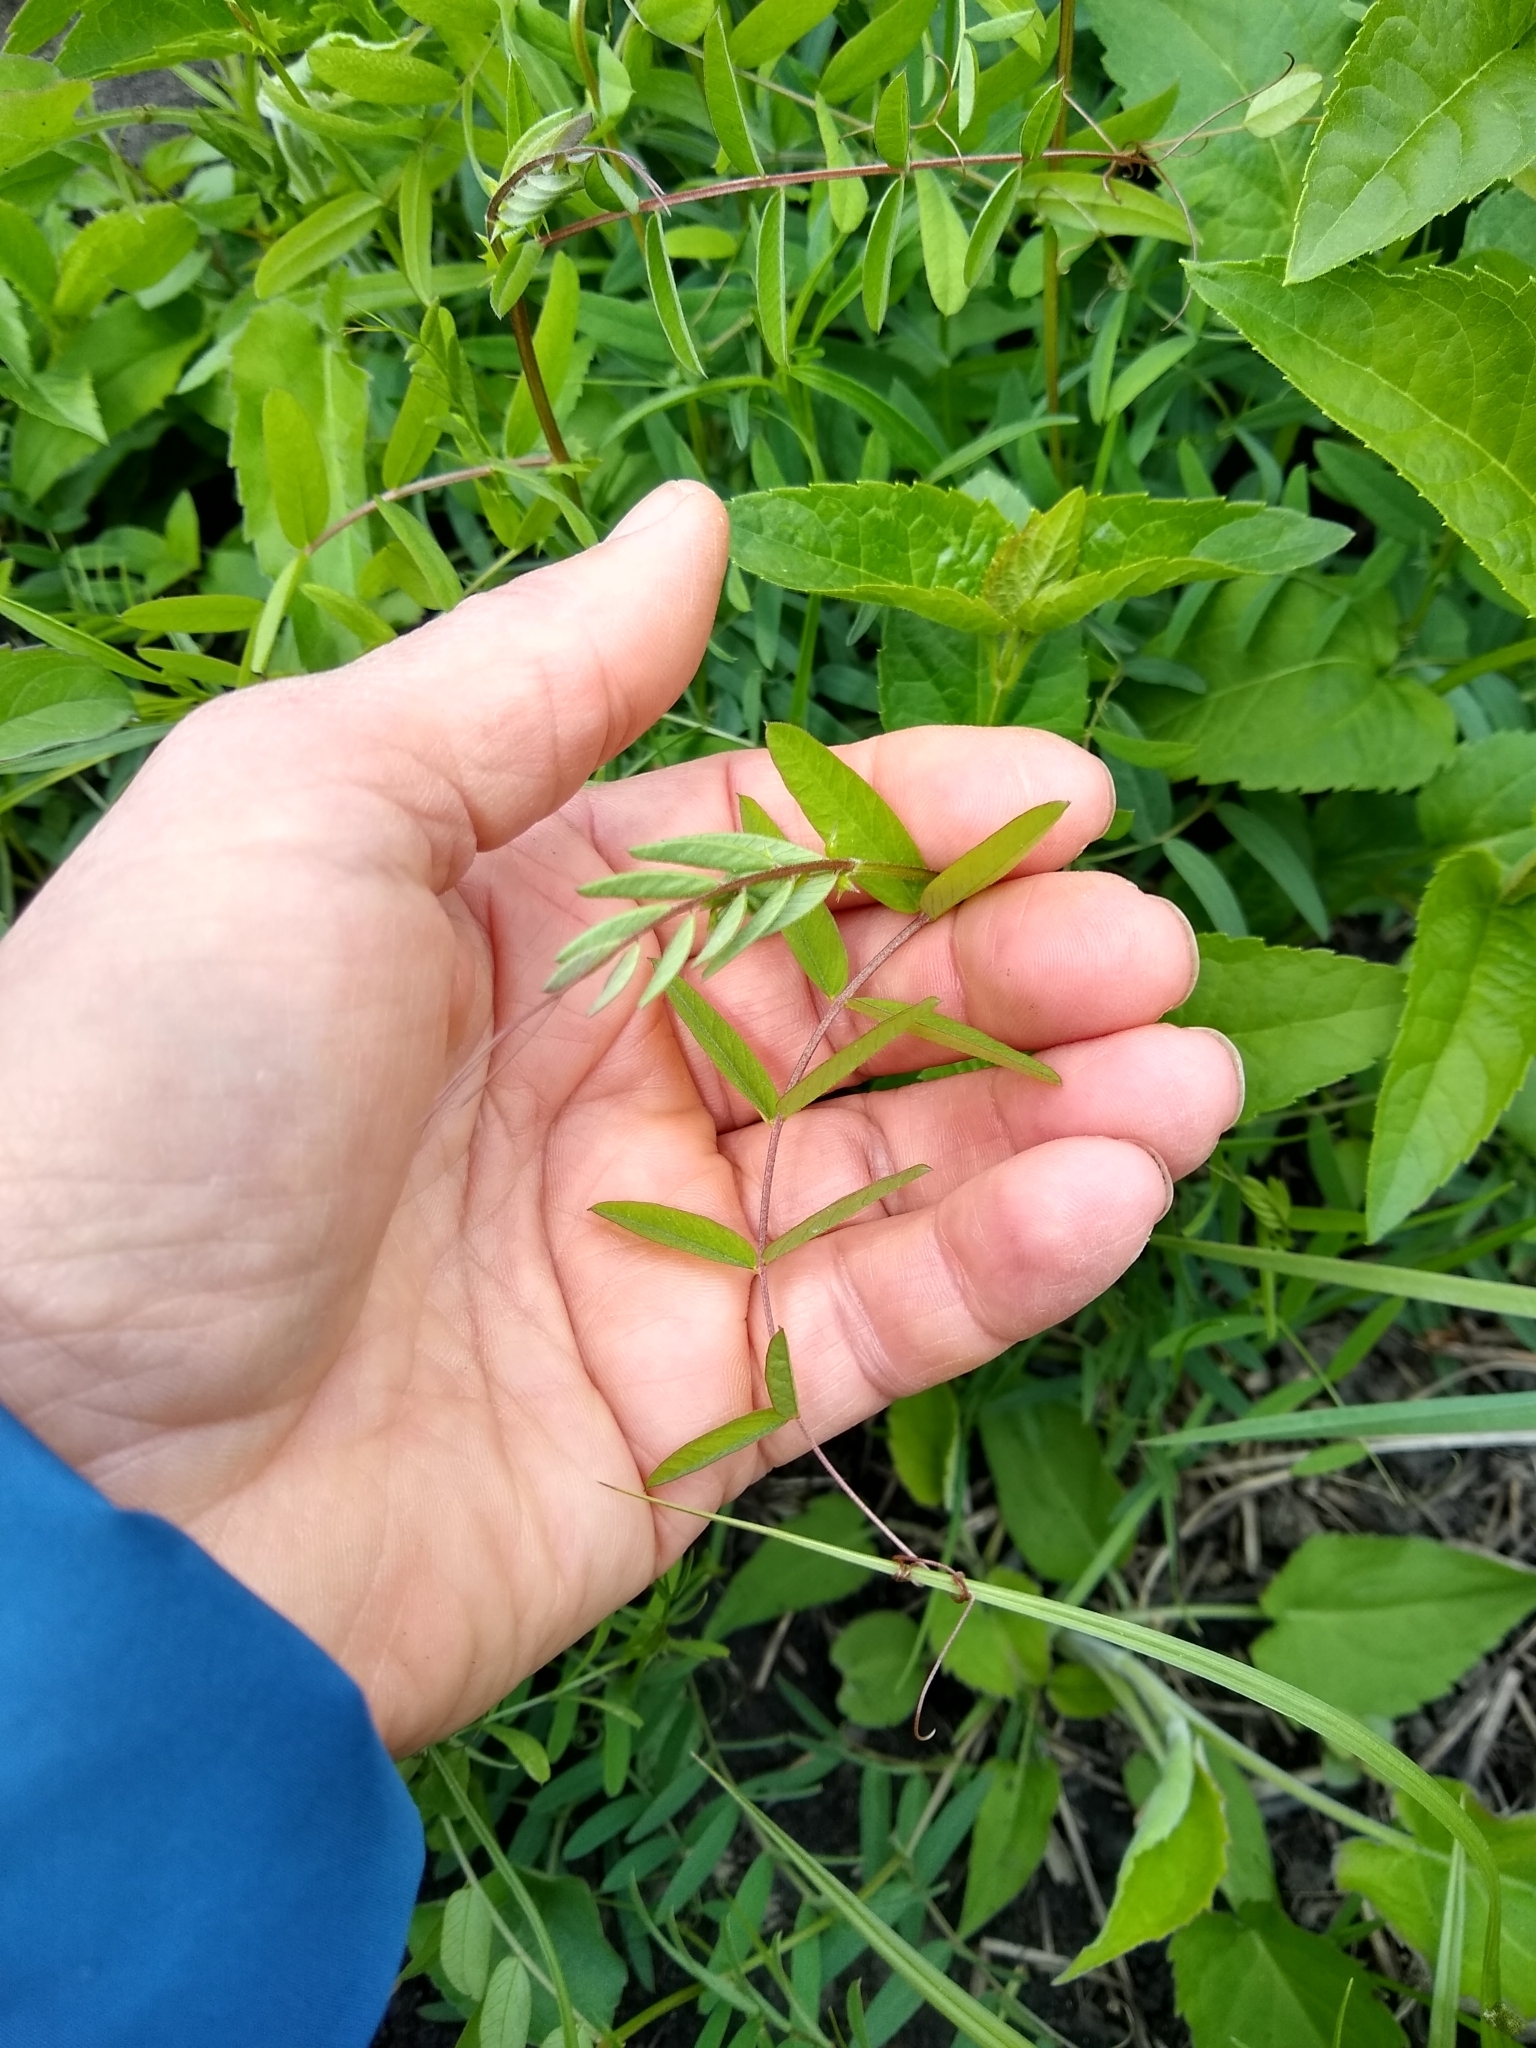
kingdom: Plantae
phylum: Tracheophyta
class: Magnoliopsida
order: Fabales
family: Fabaceae
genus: Vicia
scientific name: Vicia americana
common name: American vetch
